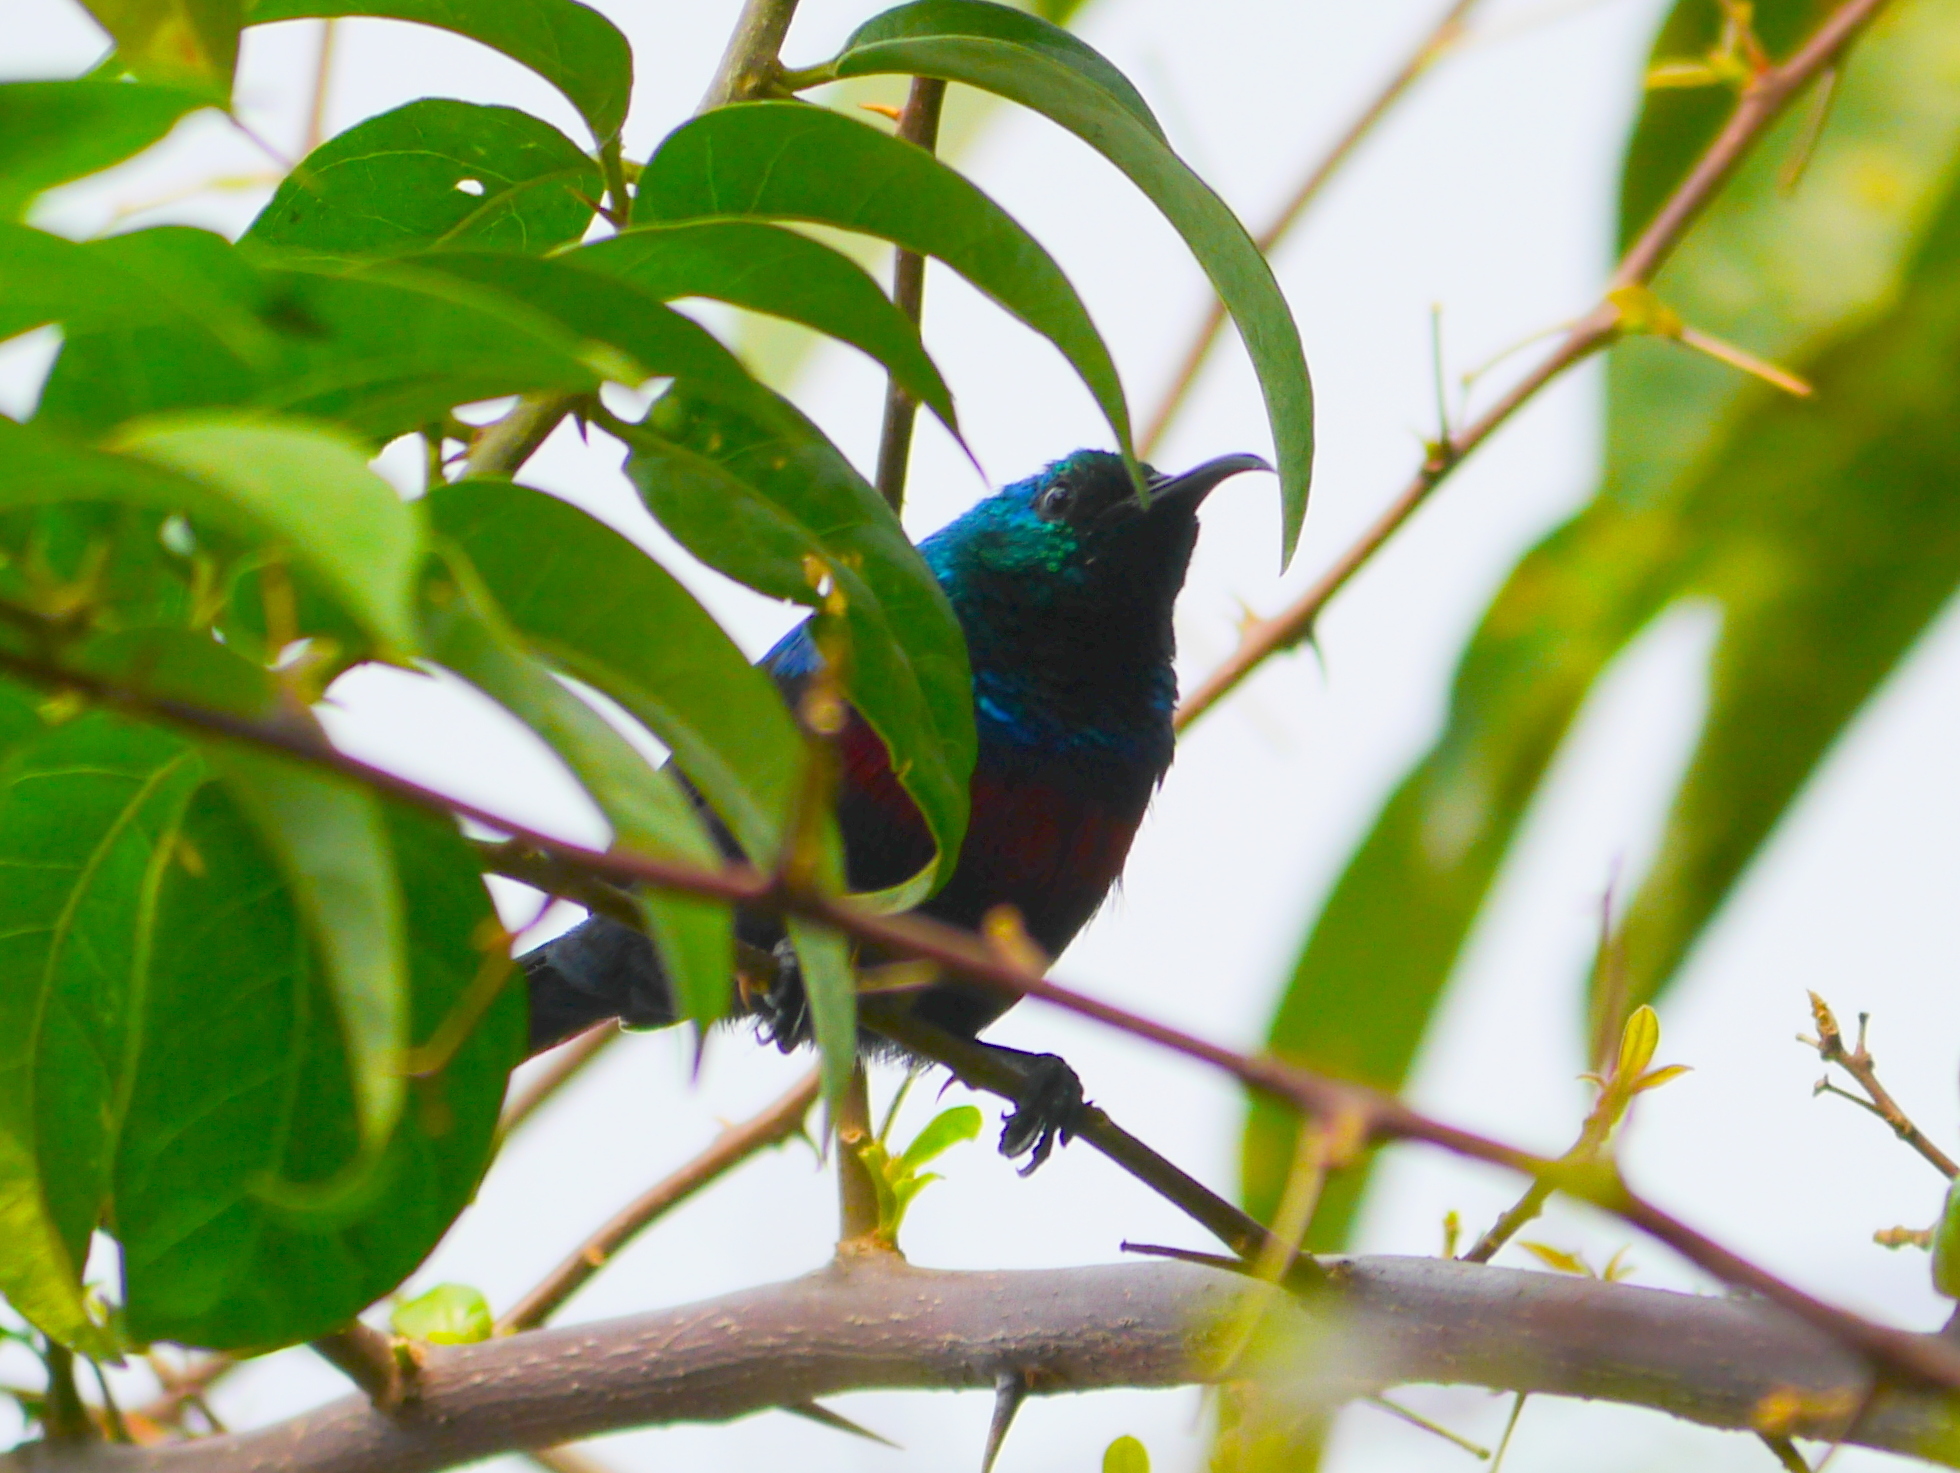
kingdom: Animalia
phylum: Chordata
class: Aves
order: Passeriformes
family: Nectariniidae
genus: Cinnyris
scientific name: Cinnyris erythrocercus
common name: Red-chested sunbird
